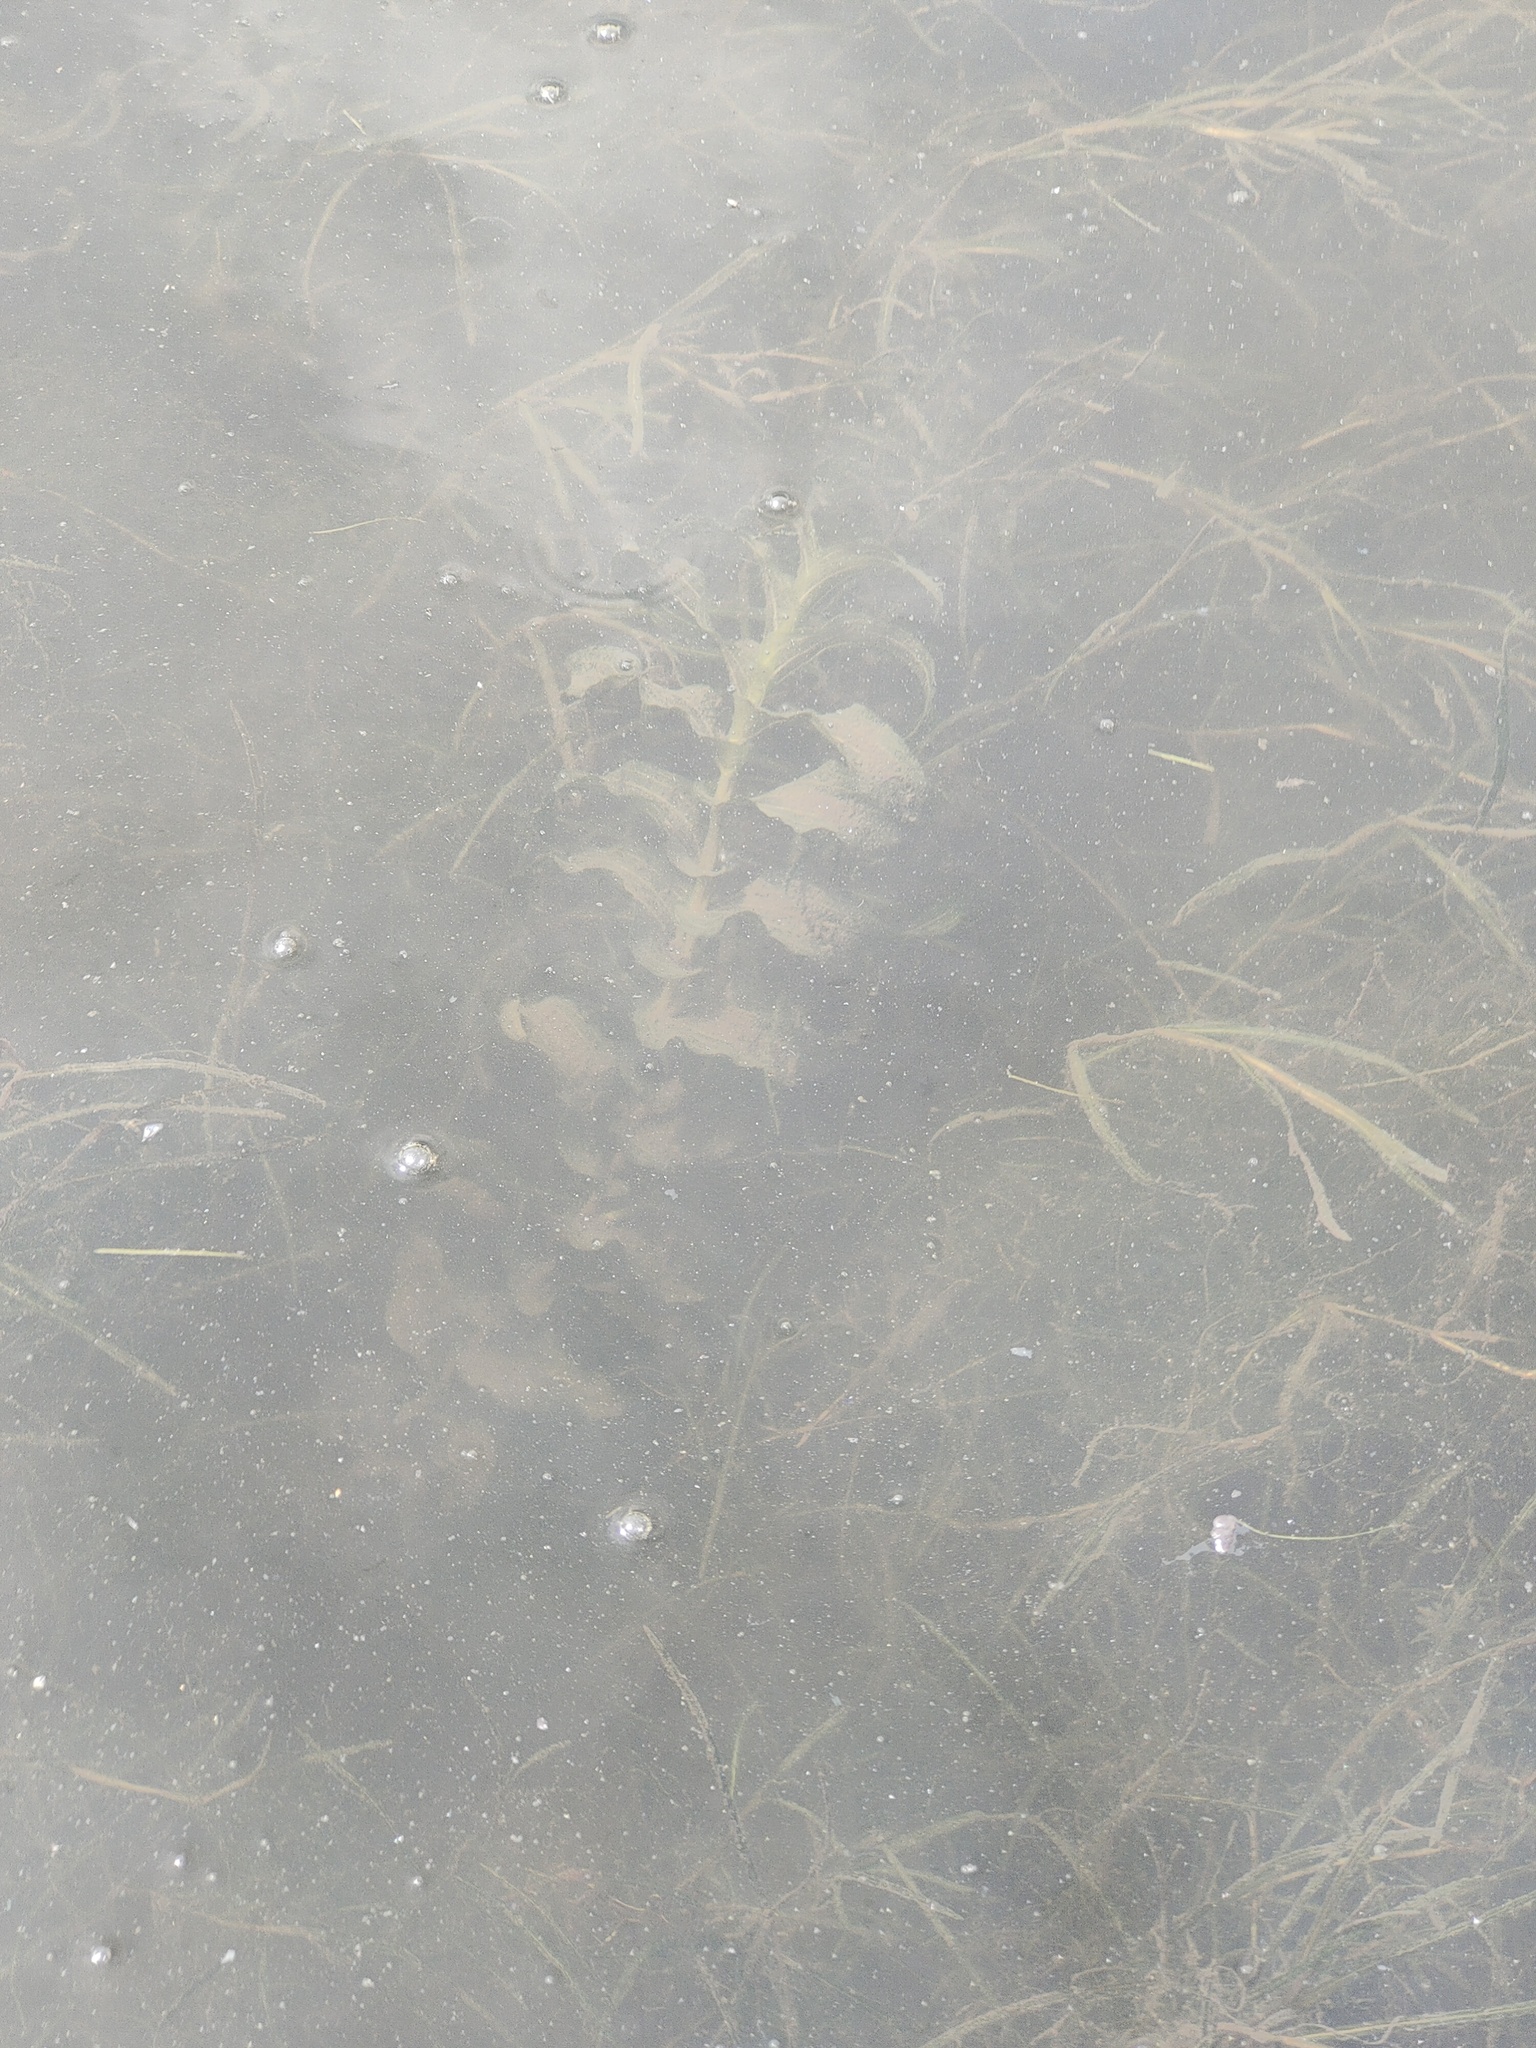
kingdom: Plantae
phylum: Tracheophyta
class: Liliopsida
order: Alismatales
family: Potamogetonaceae
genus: Potamogeton
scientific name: Potamogeton perfoliatus
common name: Perfoliate pondweed
